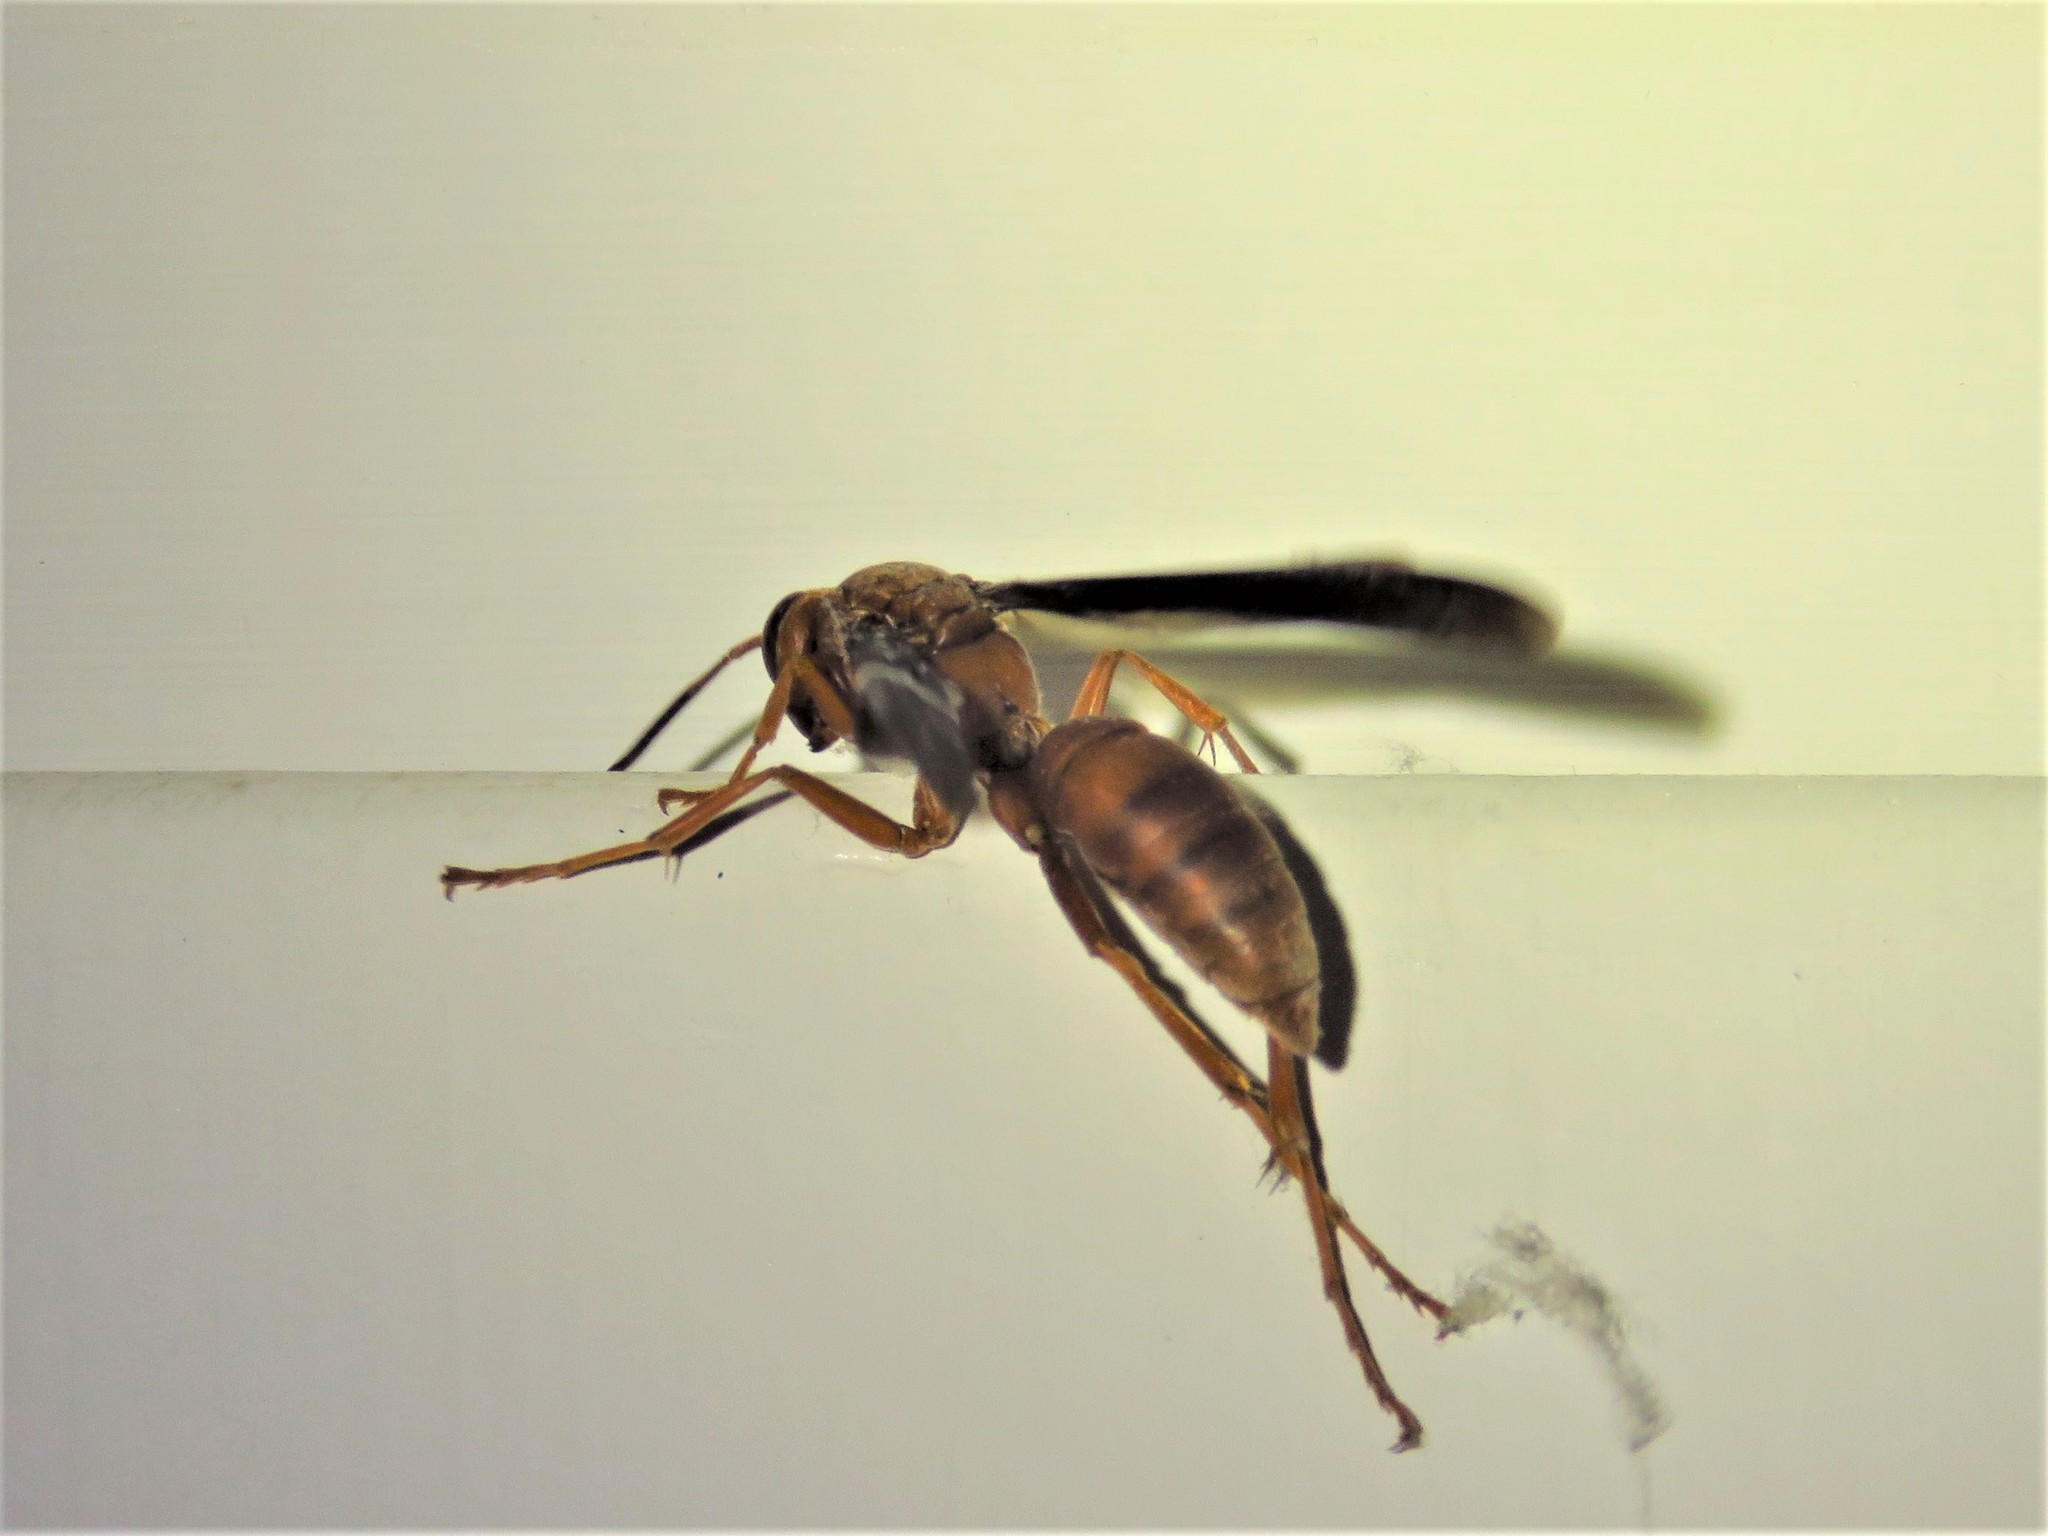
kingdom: Animalia
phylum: Arthropoda
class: Insecta
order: Hymenoptera
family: Vespidae
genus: Fuscopolistes
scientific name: Fuscopolistes
